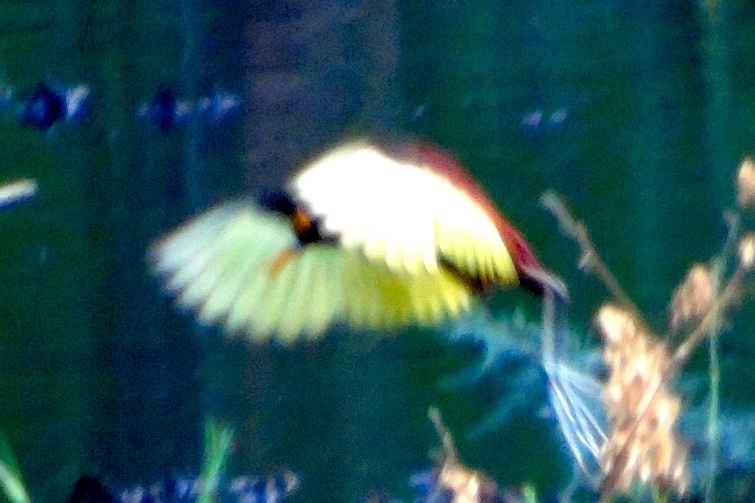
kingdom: Animalia
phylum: Chordata
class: Aves
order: Charadriiformes
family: Jacanidae
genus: Jacana
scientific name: Jacana spinosa
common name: Northern jacana
